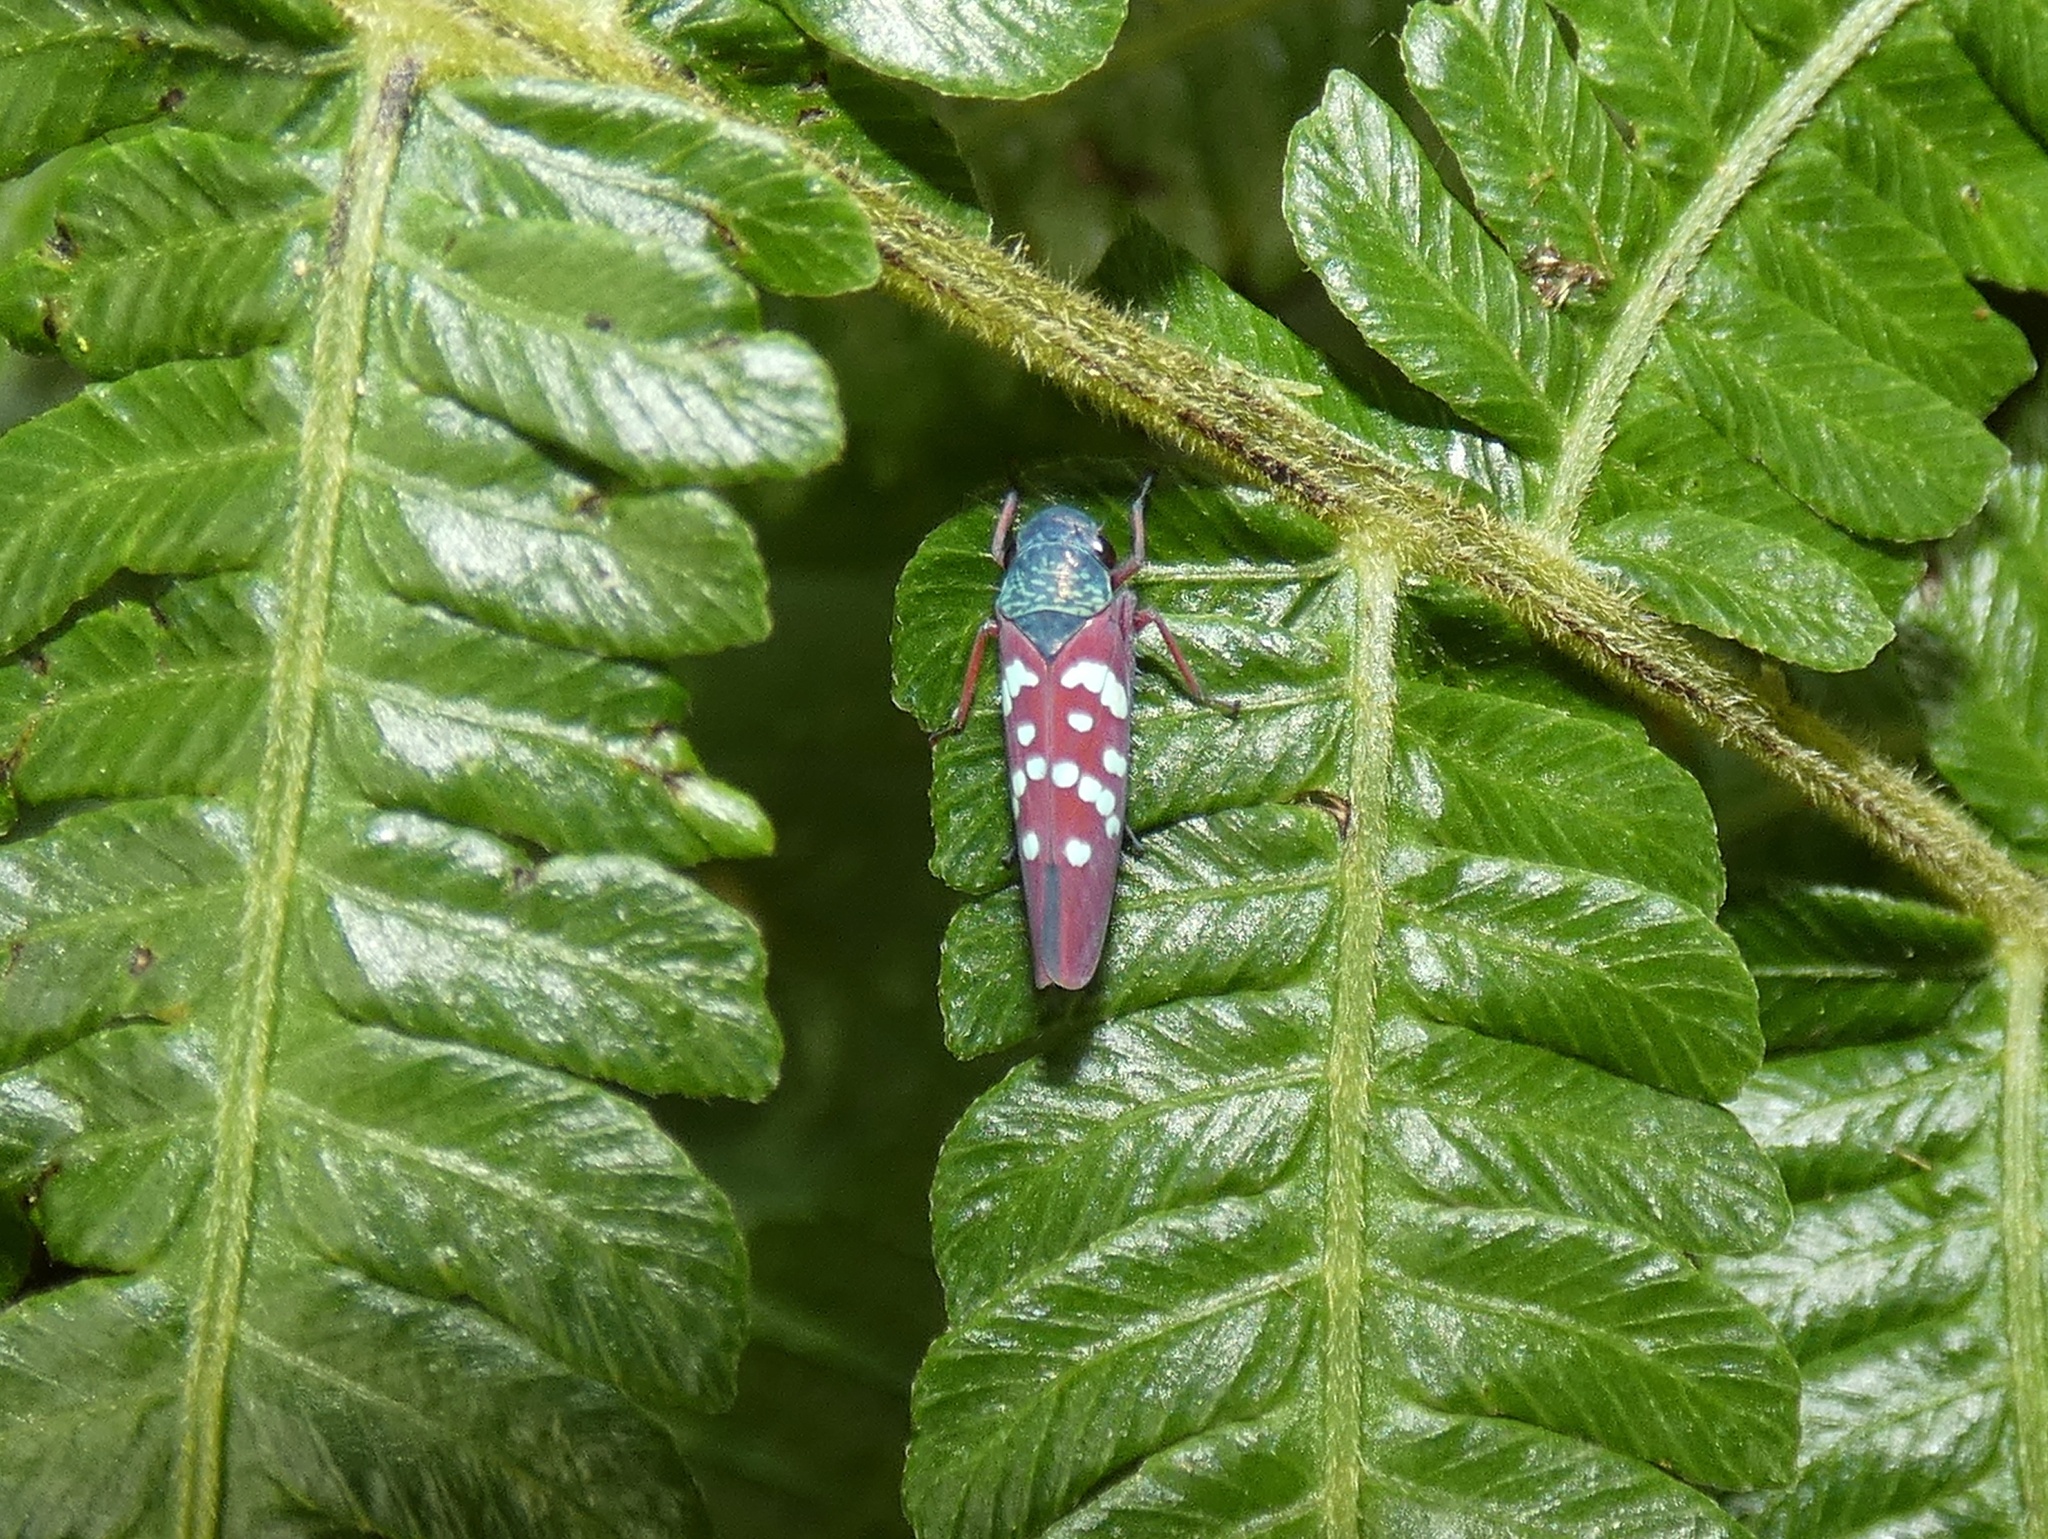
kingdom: Animalia
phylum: Arthropoda
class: Insecta
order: Hemiptera
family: Cicadellidae
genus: Graphocephala
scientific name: Graphocephala albomaculata
